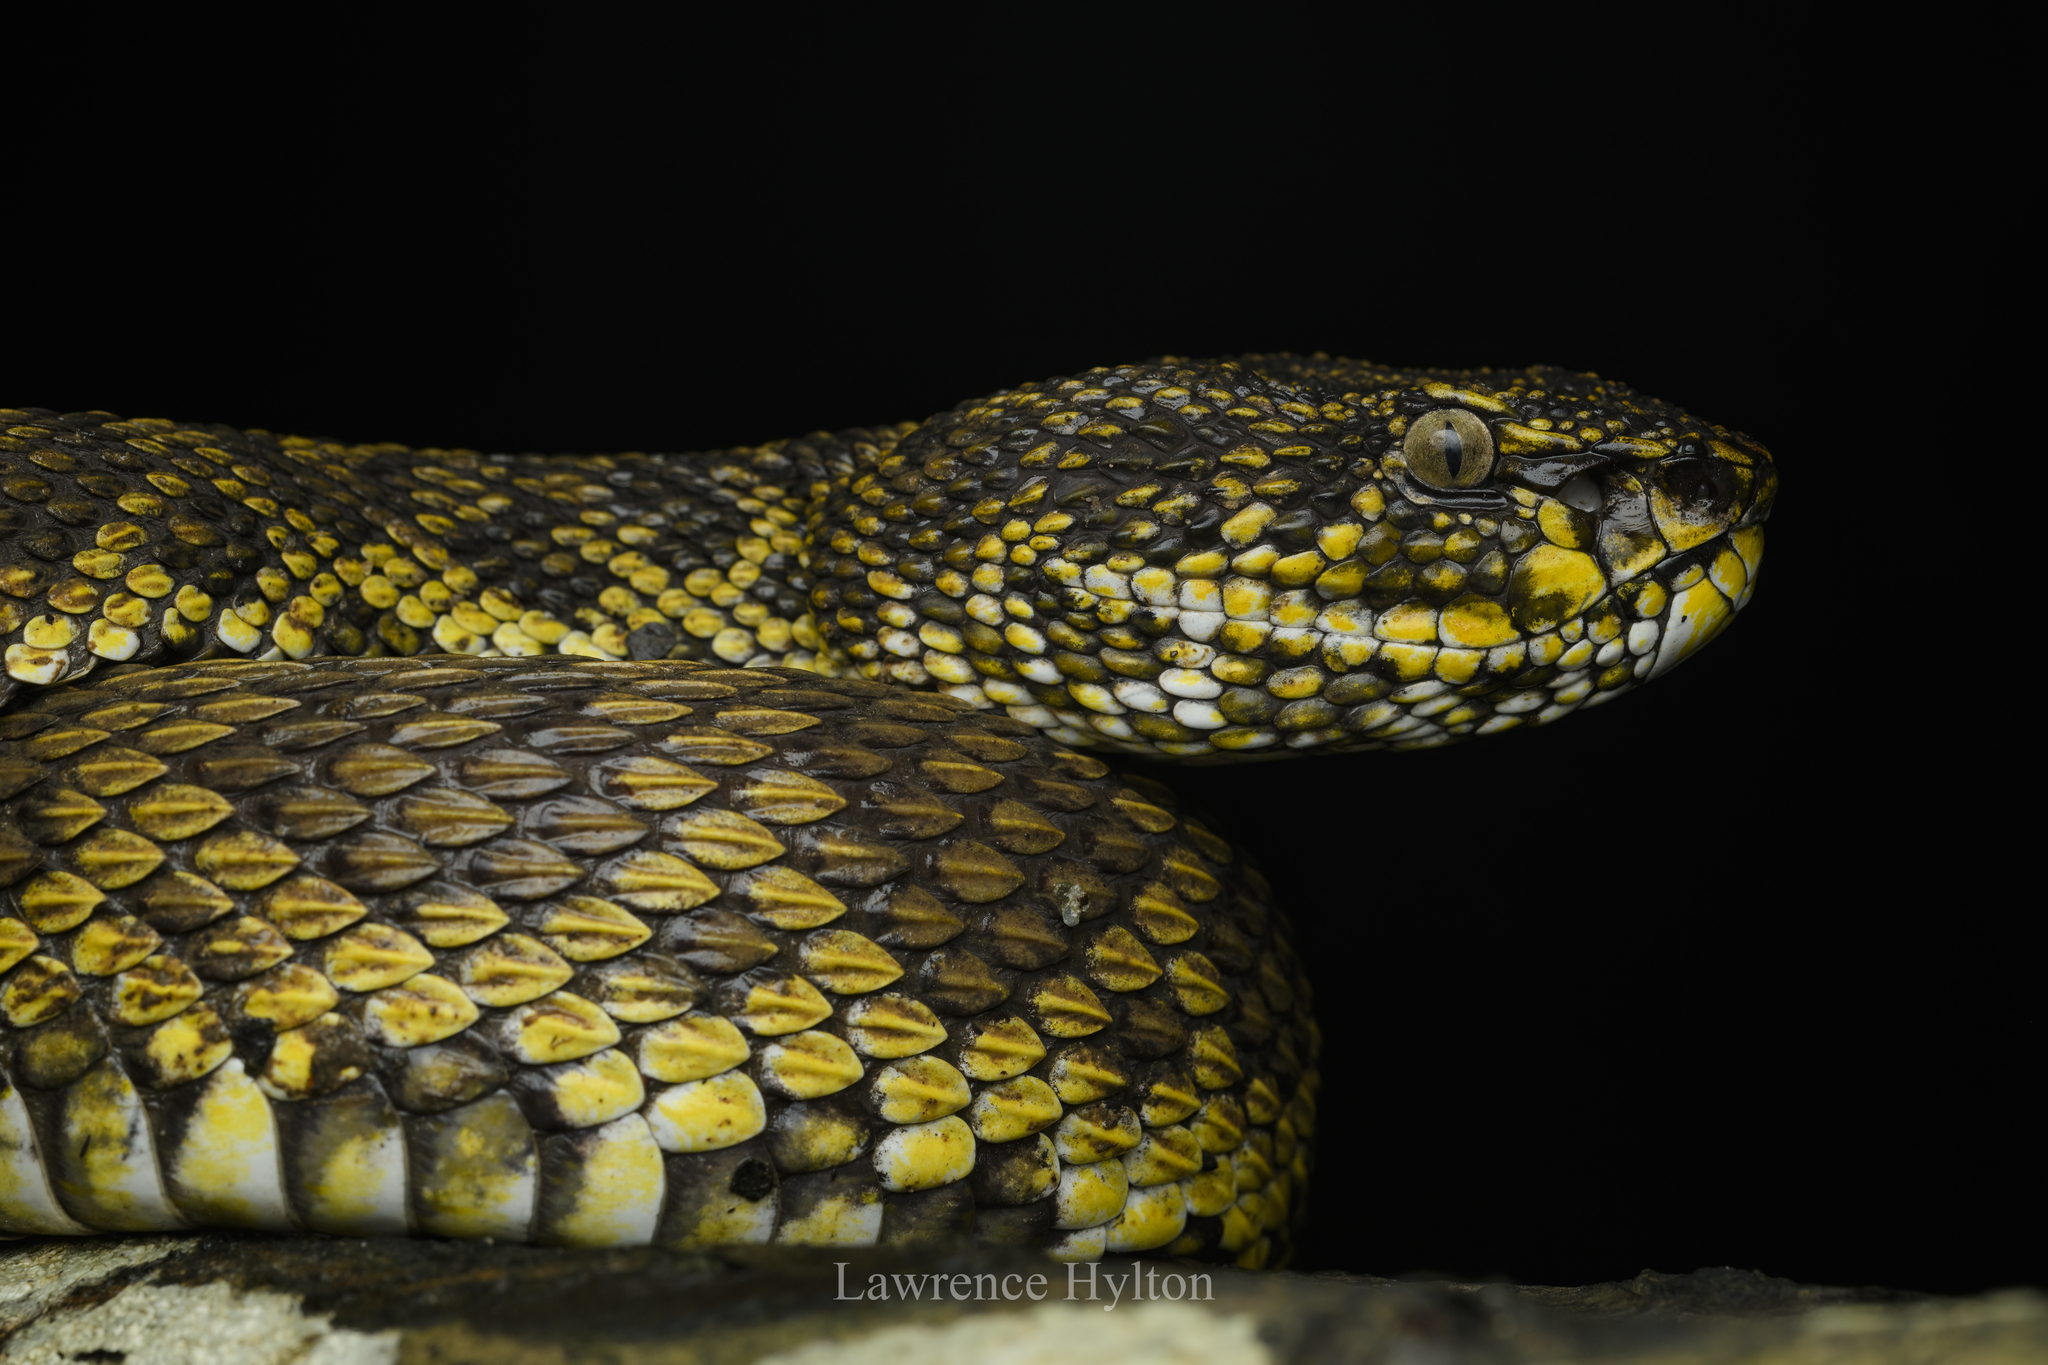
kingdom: Animalia
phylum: Chordata
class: Squamata
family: Viperidae
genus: Trimeresurus
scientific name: Trimeresurus purpureomaculatus
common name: Shore pit viper
